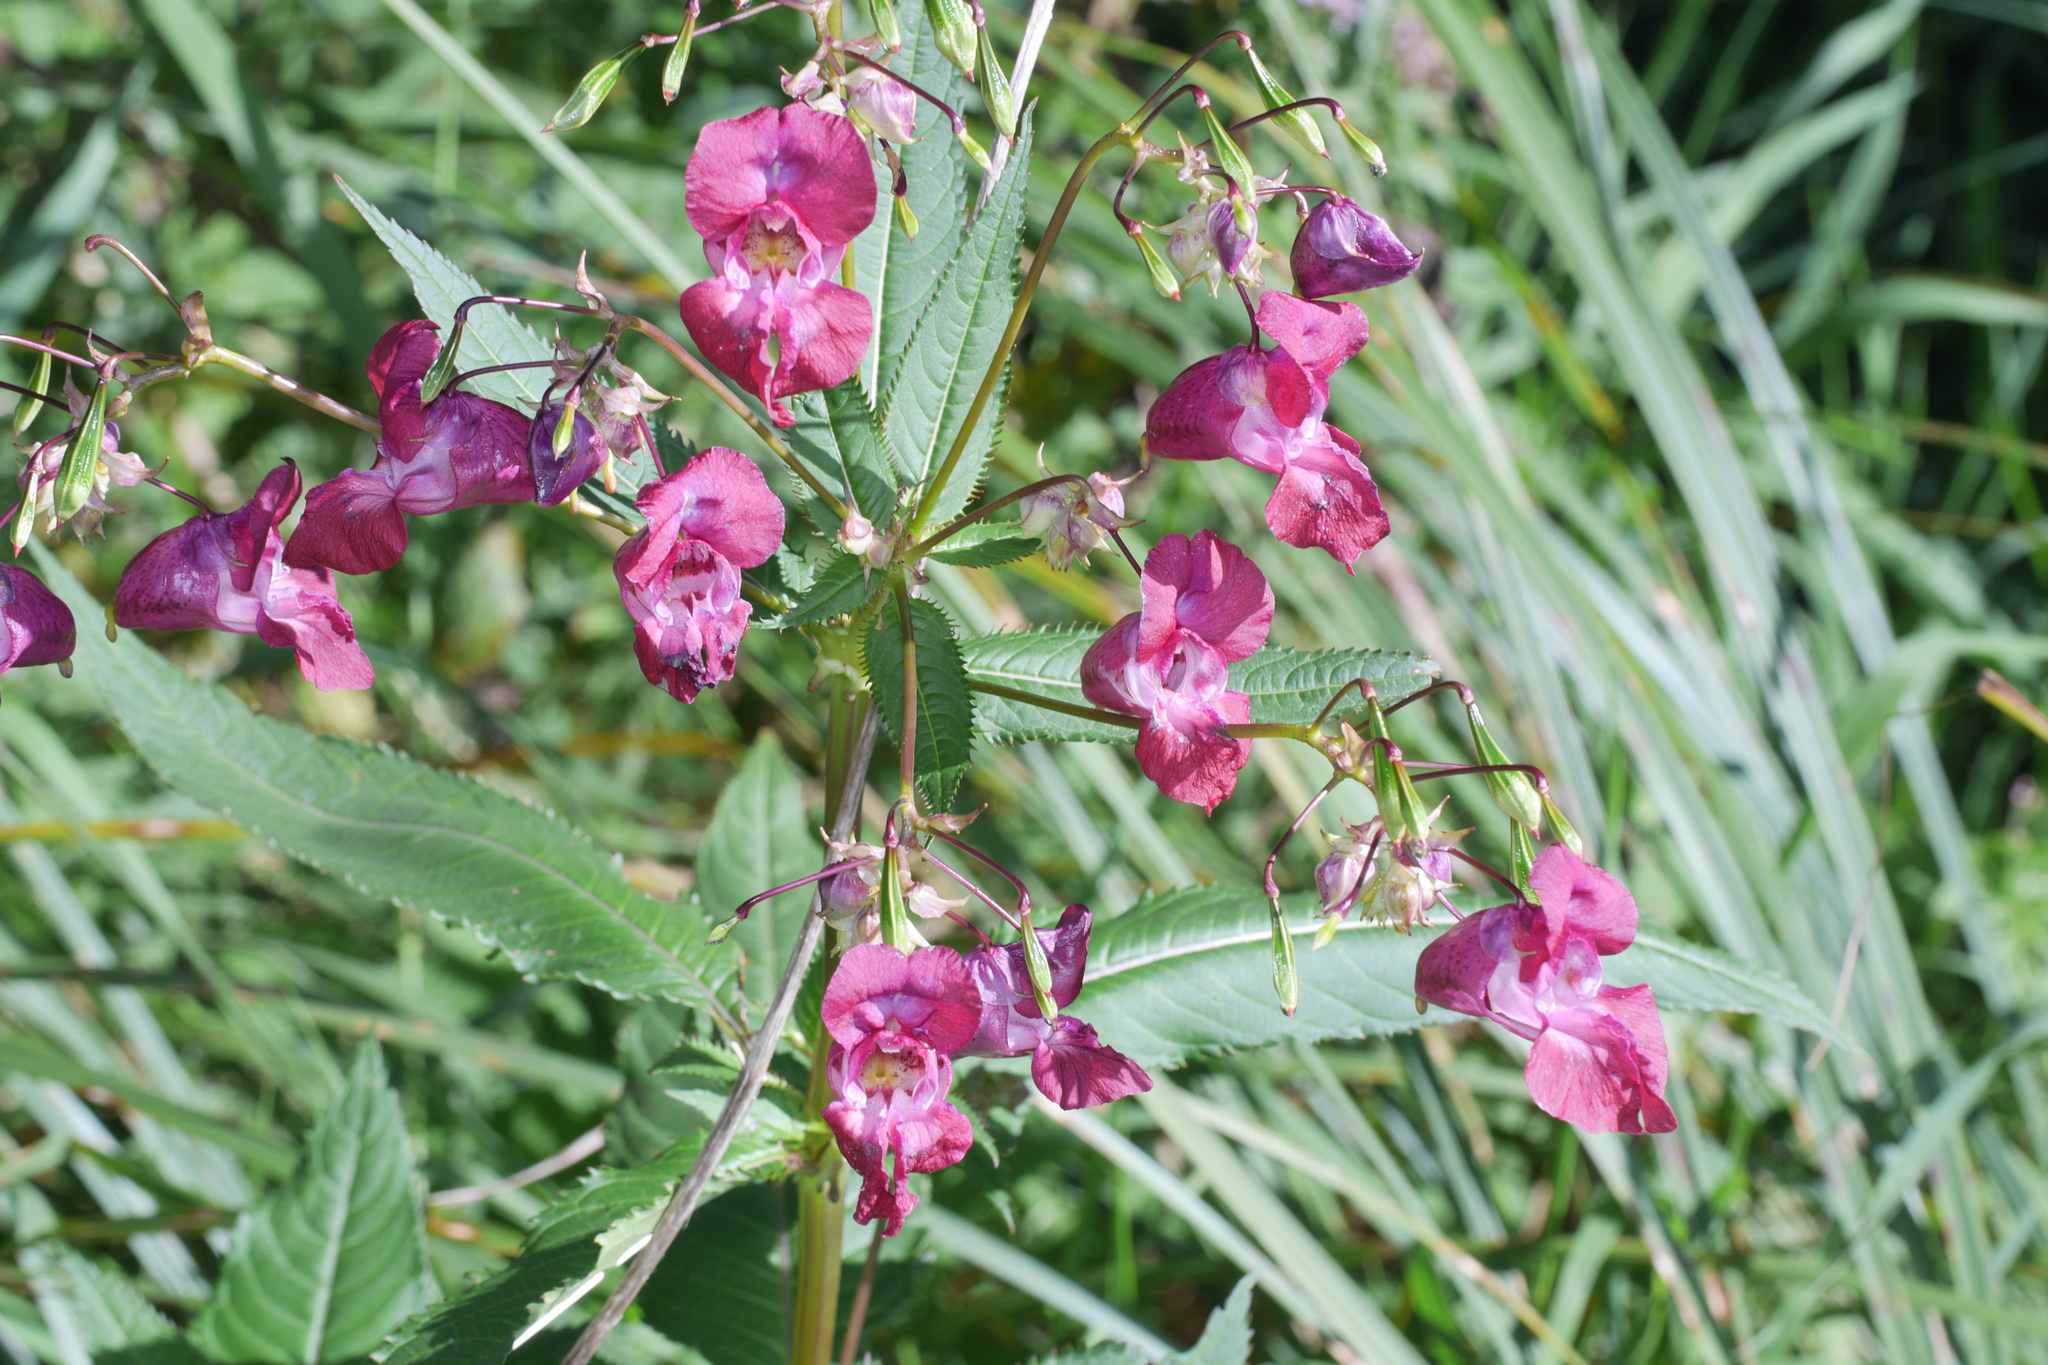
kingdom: Plantae
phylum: Tracheophyta
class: Magnoliopsida
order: Ericales
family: Balsaminaceae
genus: Impatiens
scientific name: Impatiens glandulifera
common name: Himalayan balsam
